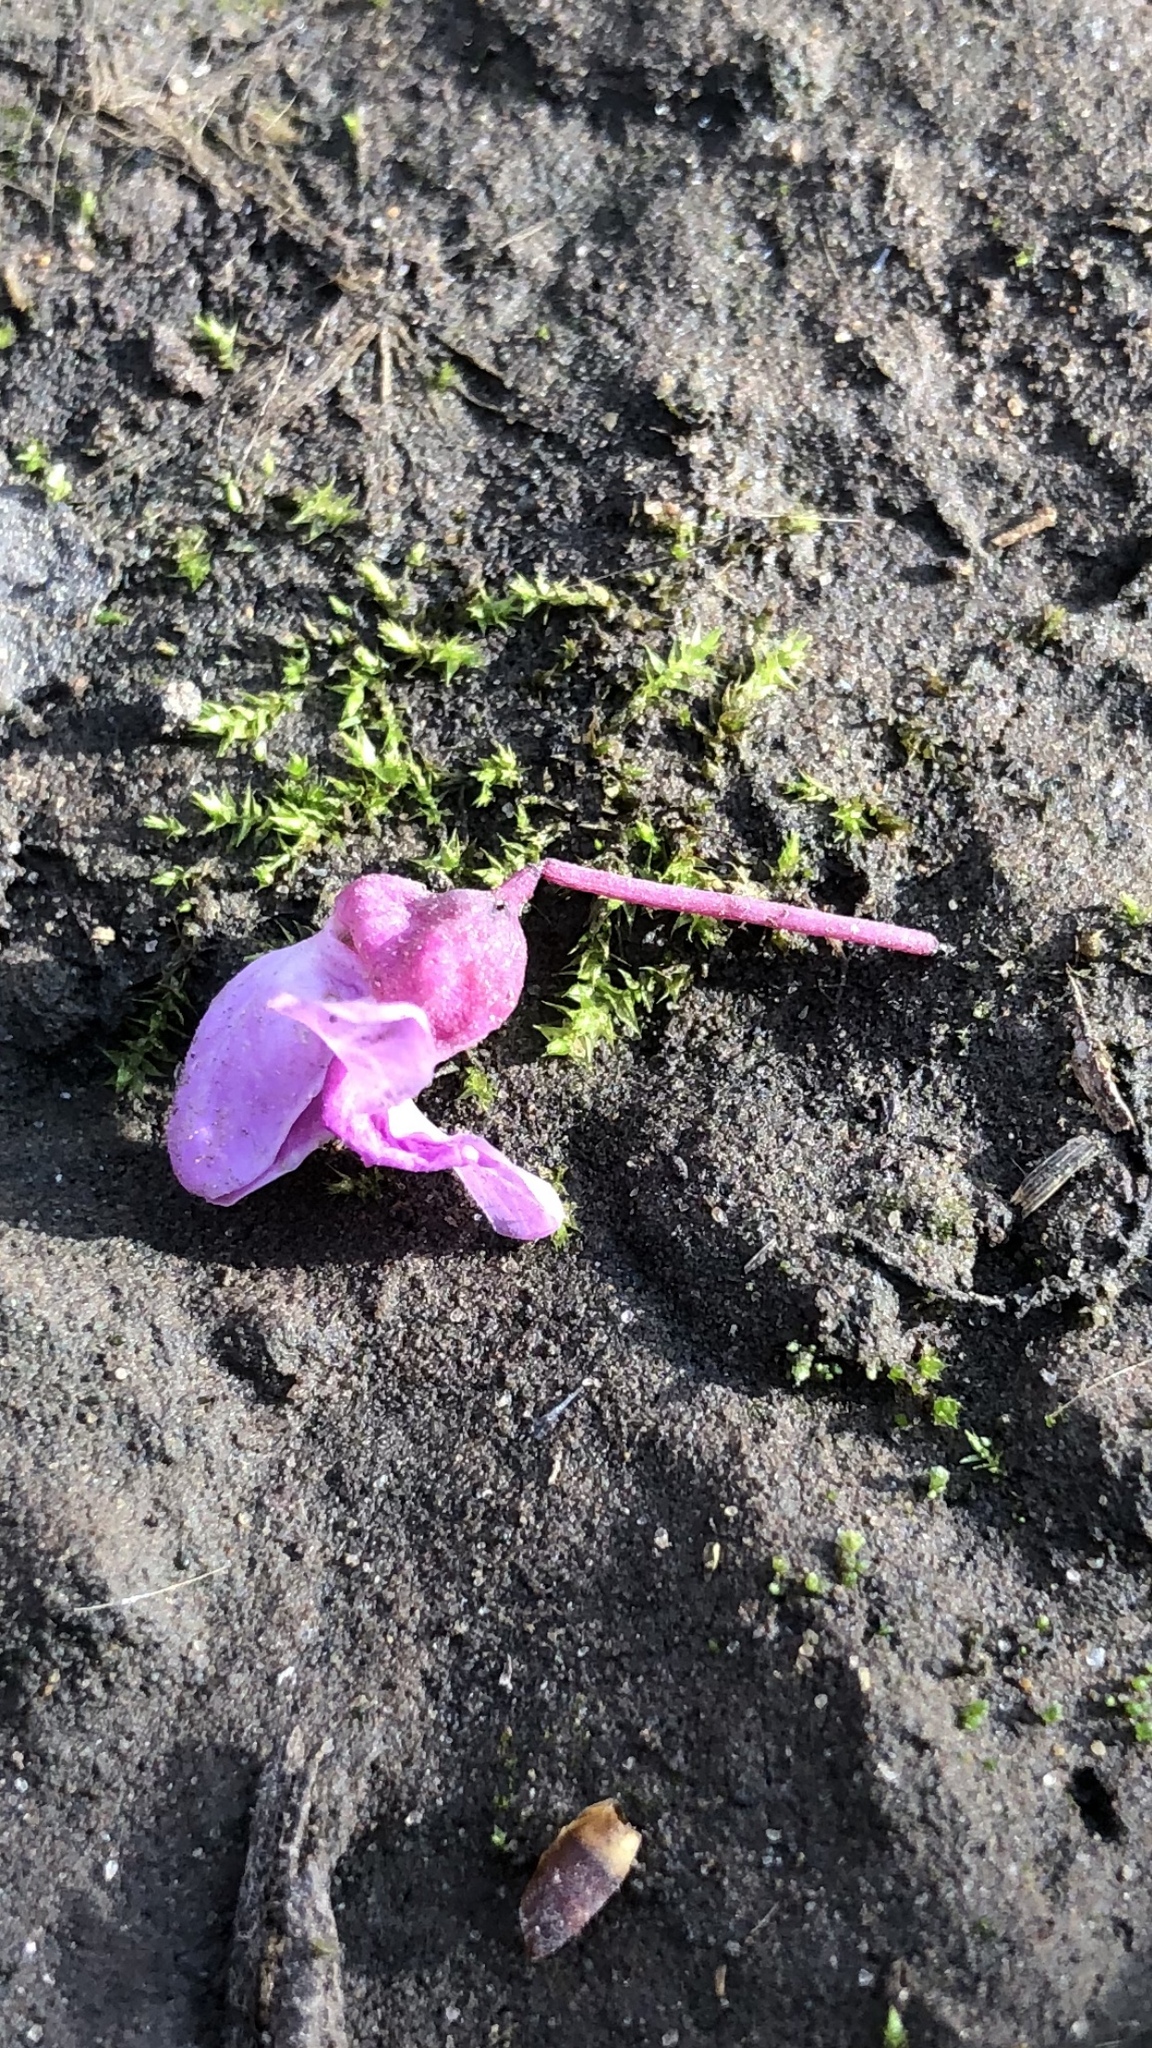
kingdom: Plantae
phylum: Tracheophyta
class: Magnoliopsida
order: Fabales
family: Fabaceae
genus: Cercis
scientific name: Cercis canadensis
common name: Eastern redbud
